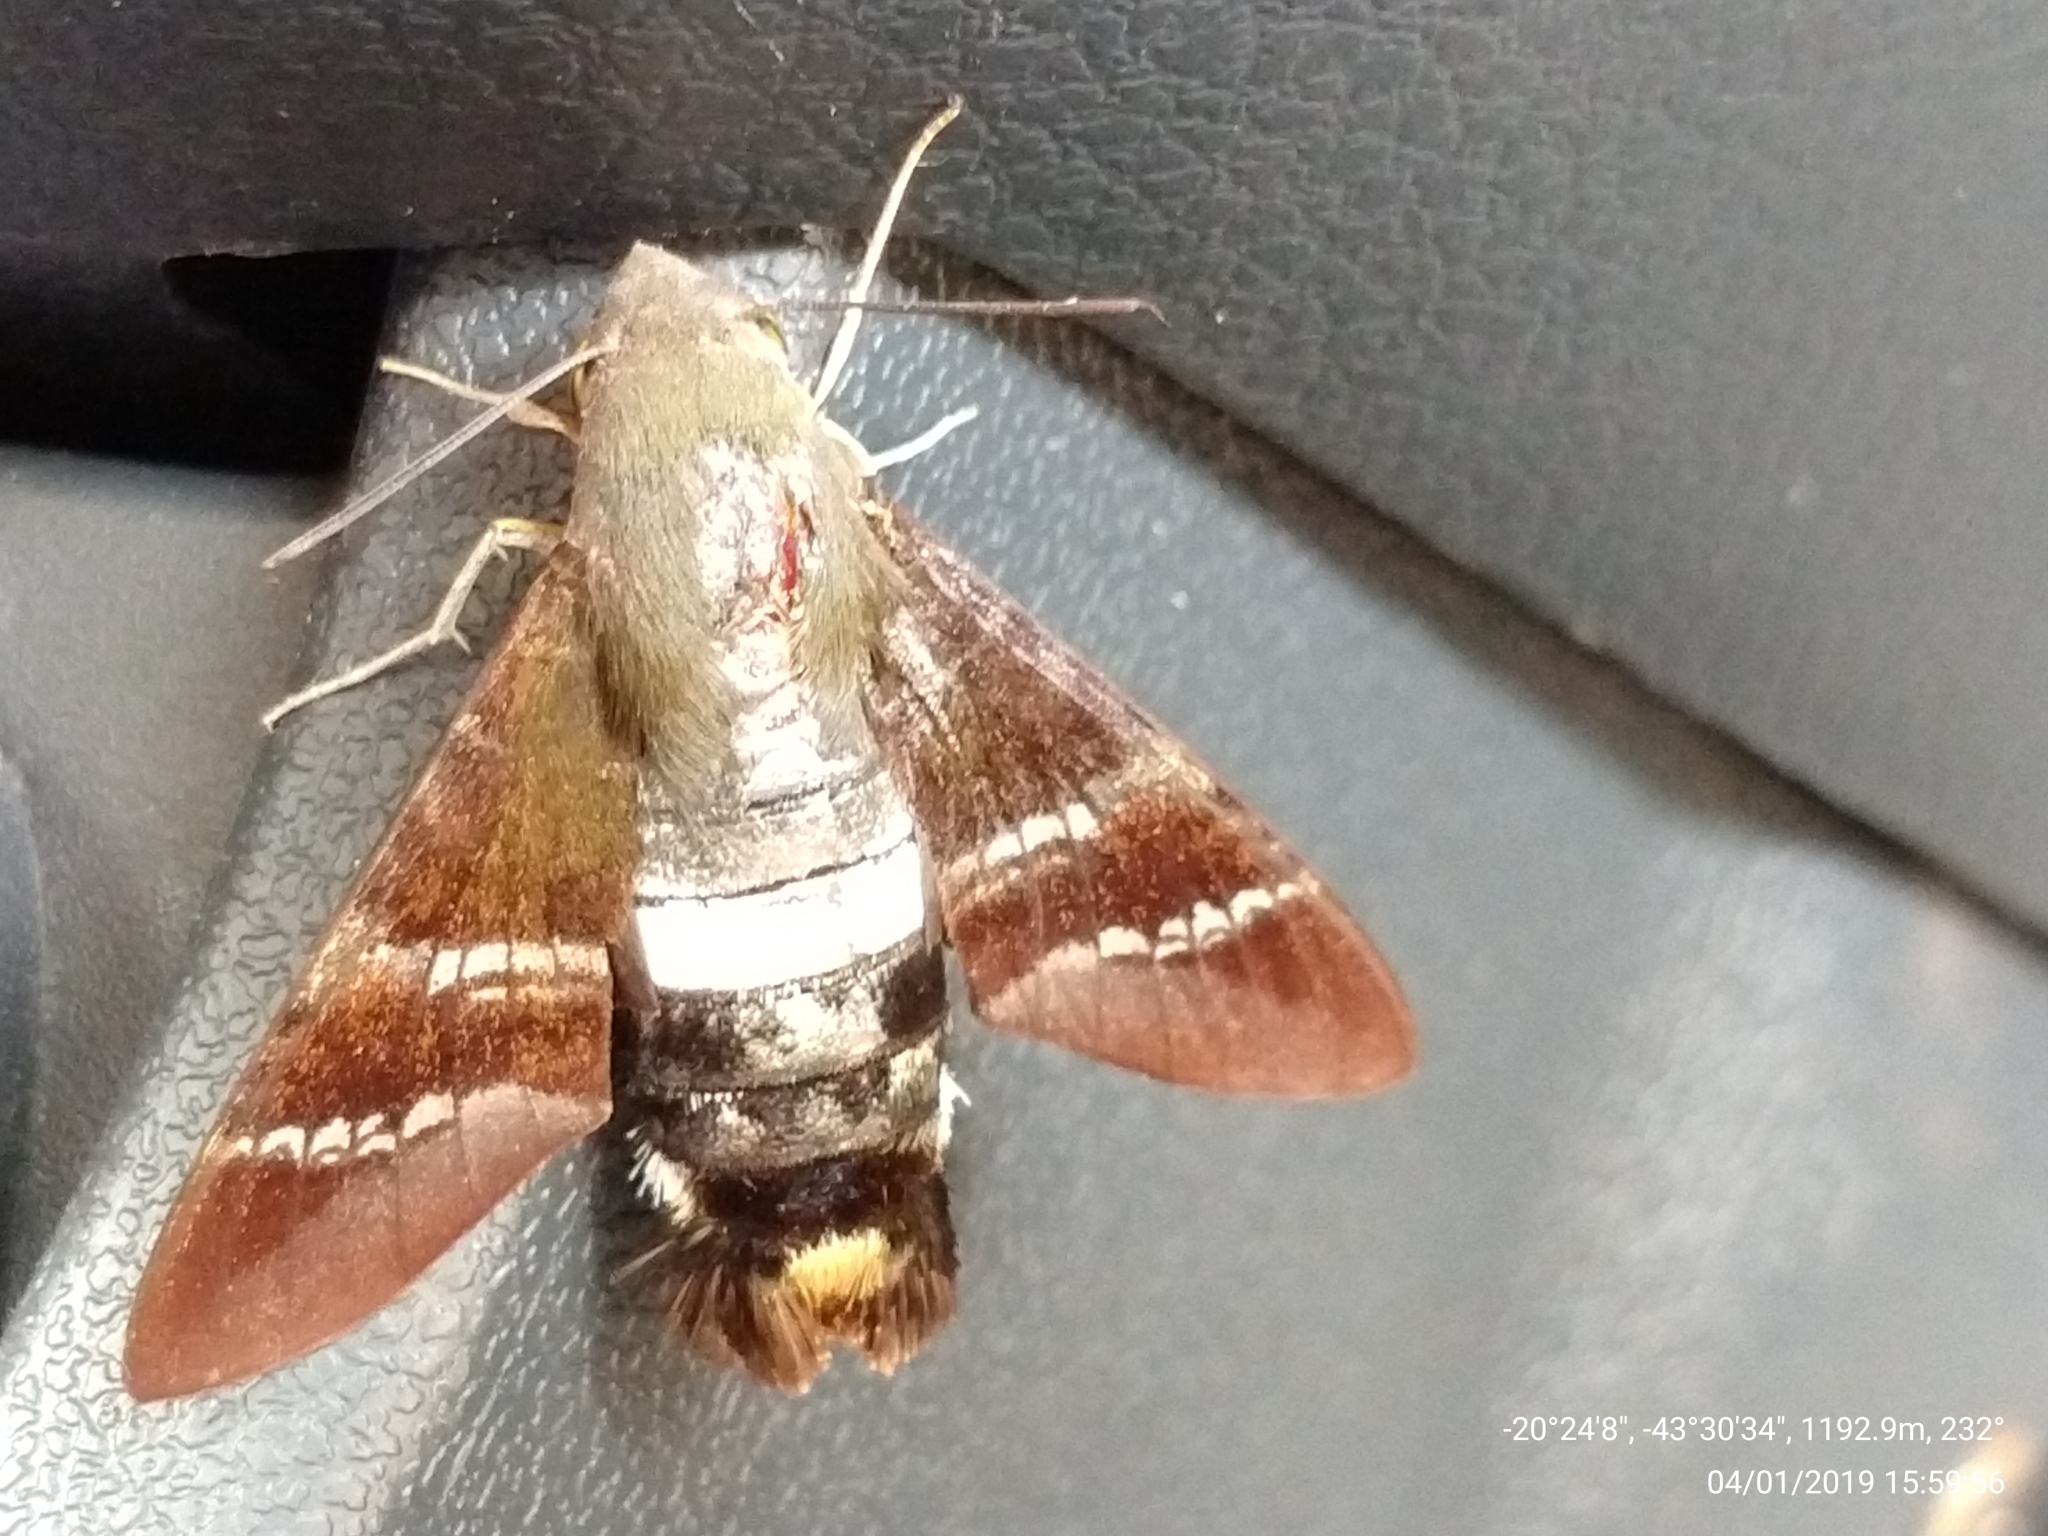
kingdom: Animalia
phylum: Arthropoda
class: Insecta
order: Lepidoptera
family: Sphingidae
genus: Aellopos
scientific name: Aellopos fadus
